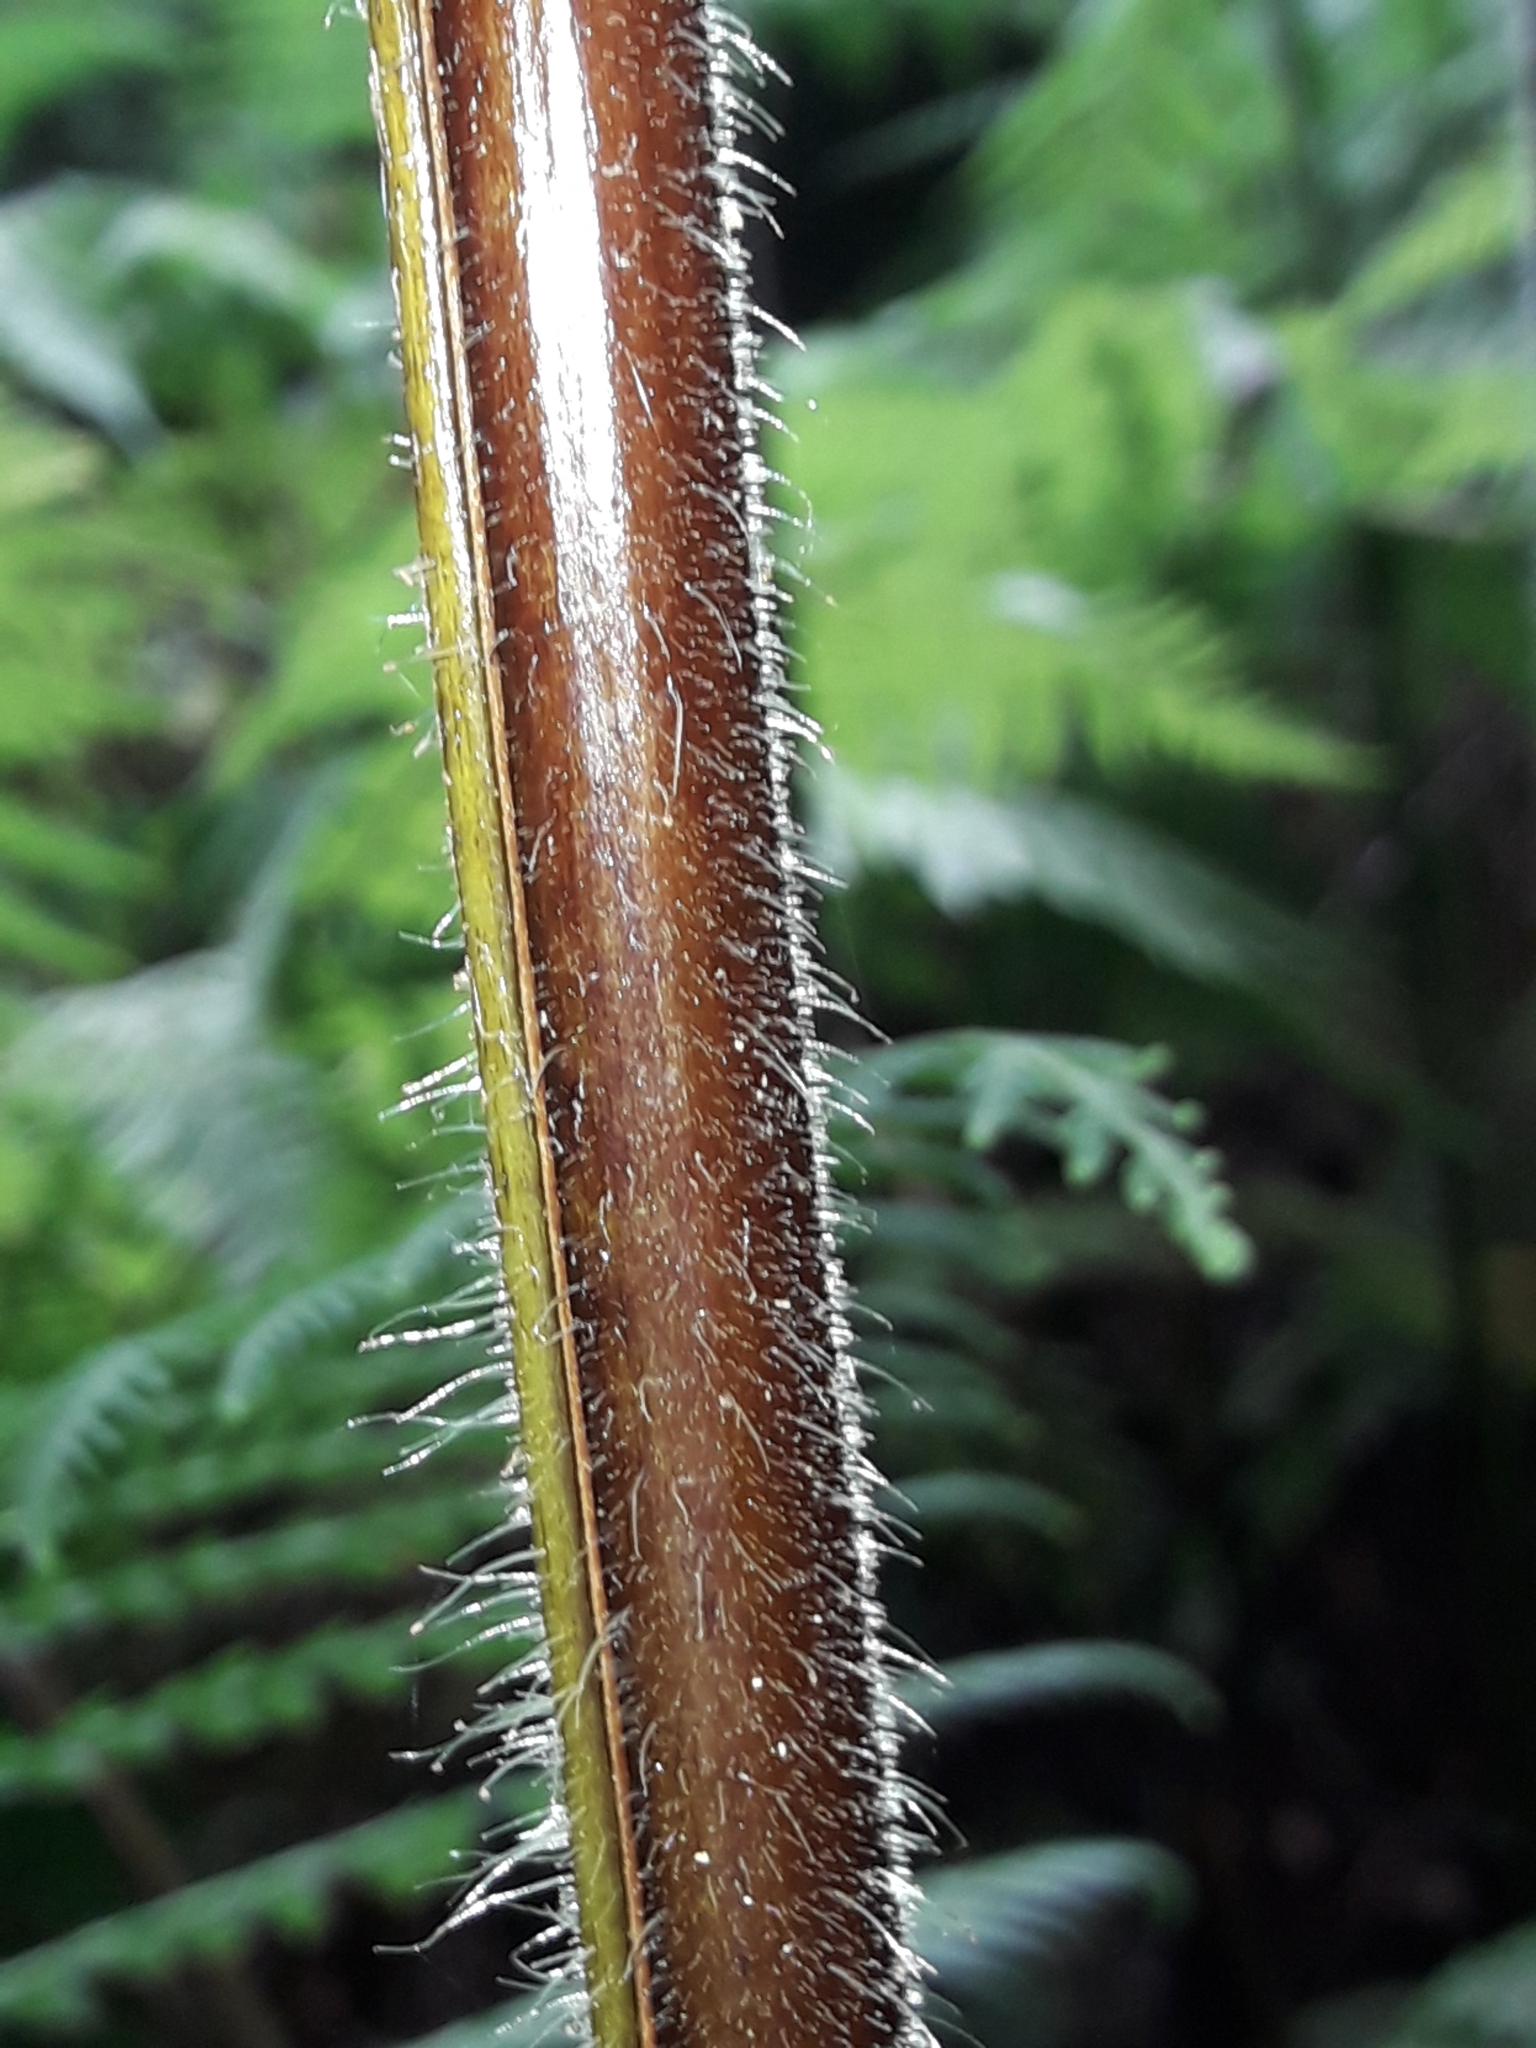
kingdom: Plantae
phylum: Tracheophyta
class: Polypodiopsida
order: Polypodiales
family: Dennstaedtiaceae
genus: Hypolepis
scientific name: Hypolepis elegans
